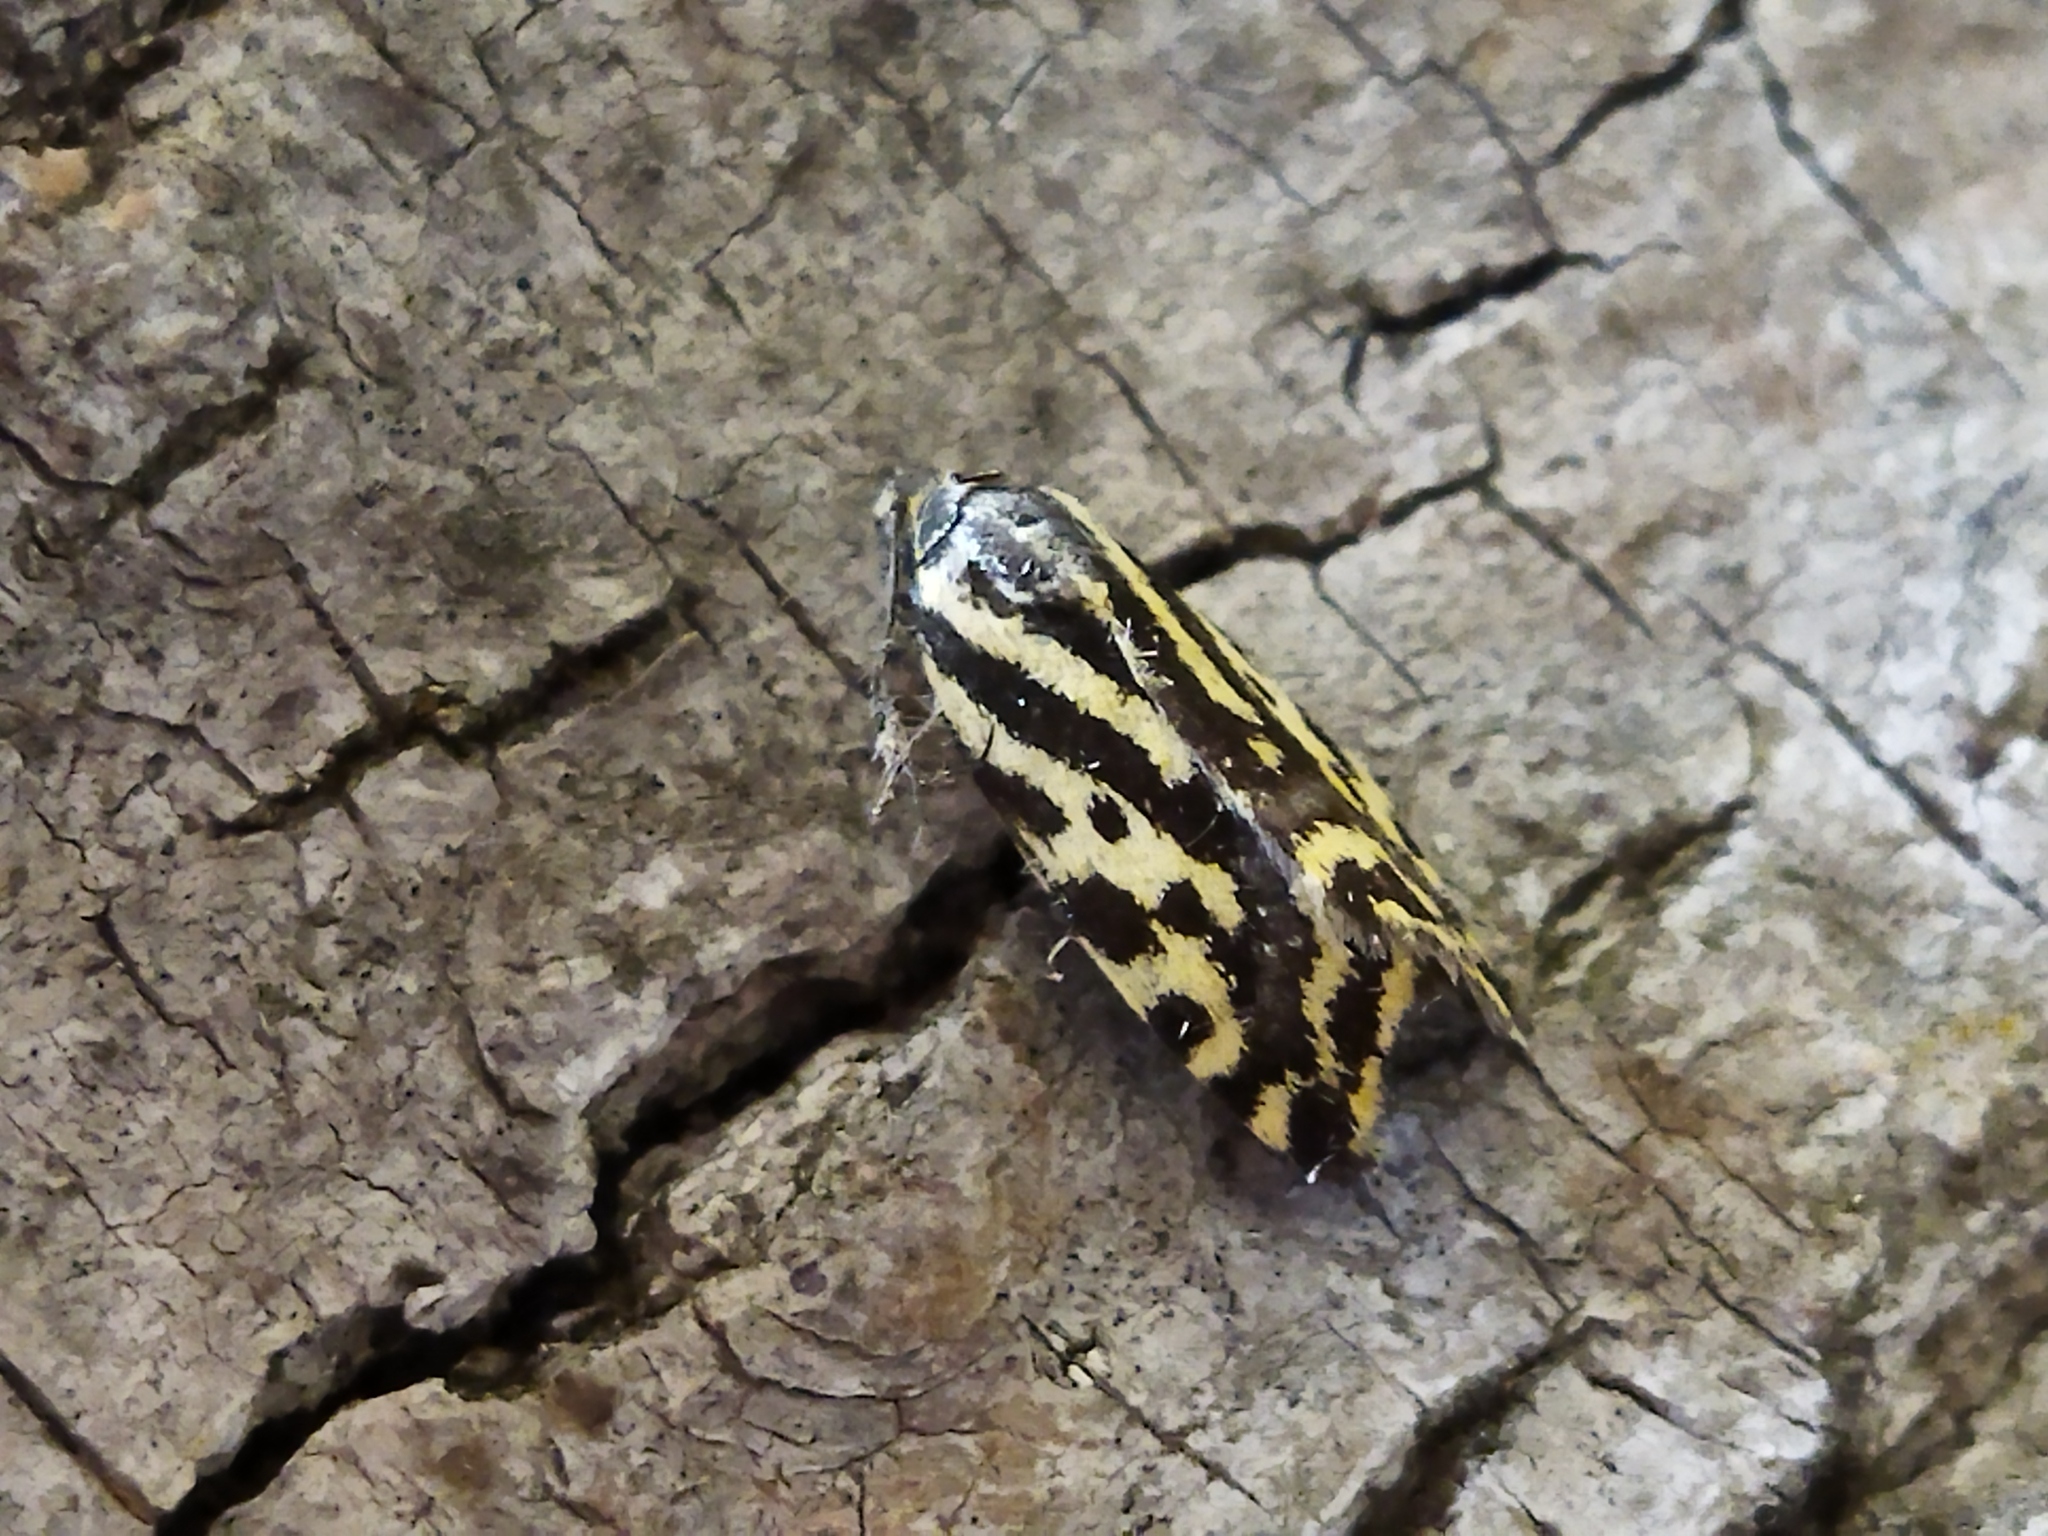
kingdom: Animalia
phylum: Arthropoda
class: Insecta
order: Lepidoptera
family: Noctuidae
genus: Acontia
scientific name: Acontia trabealis
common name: Spotted sulphur
